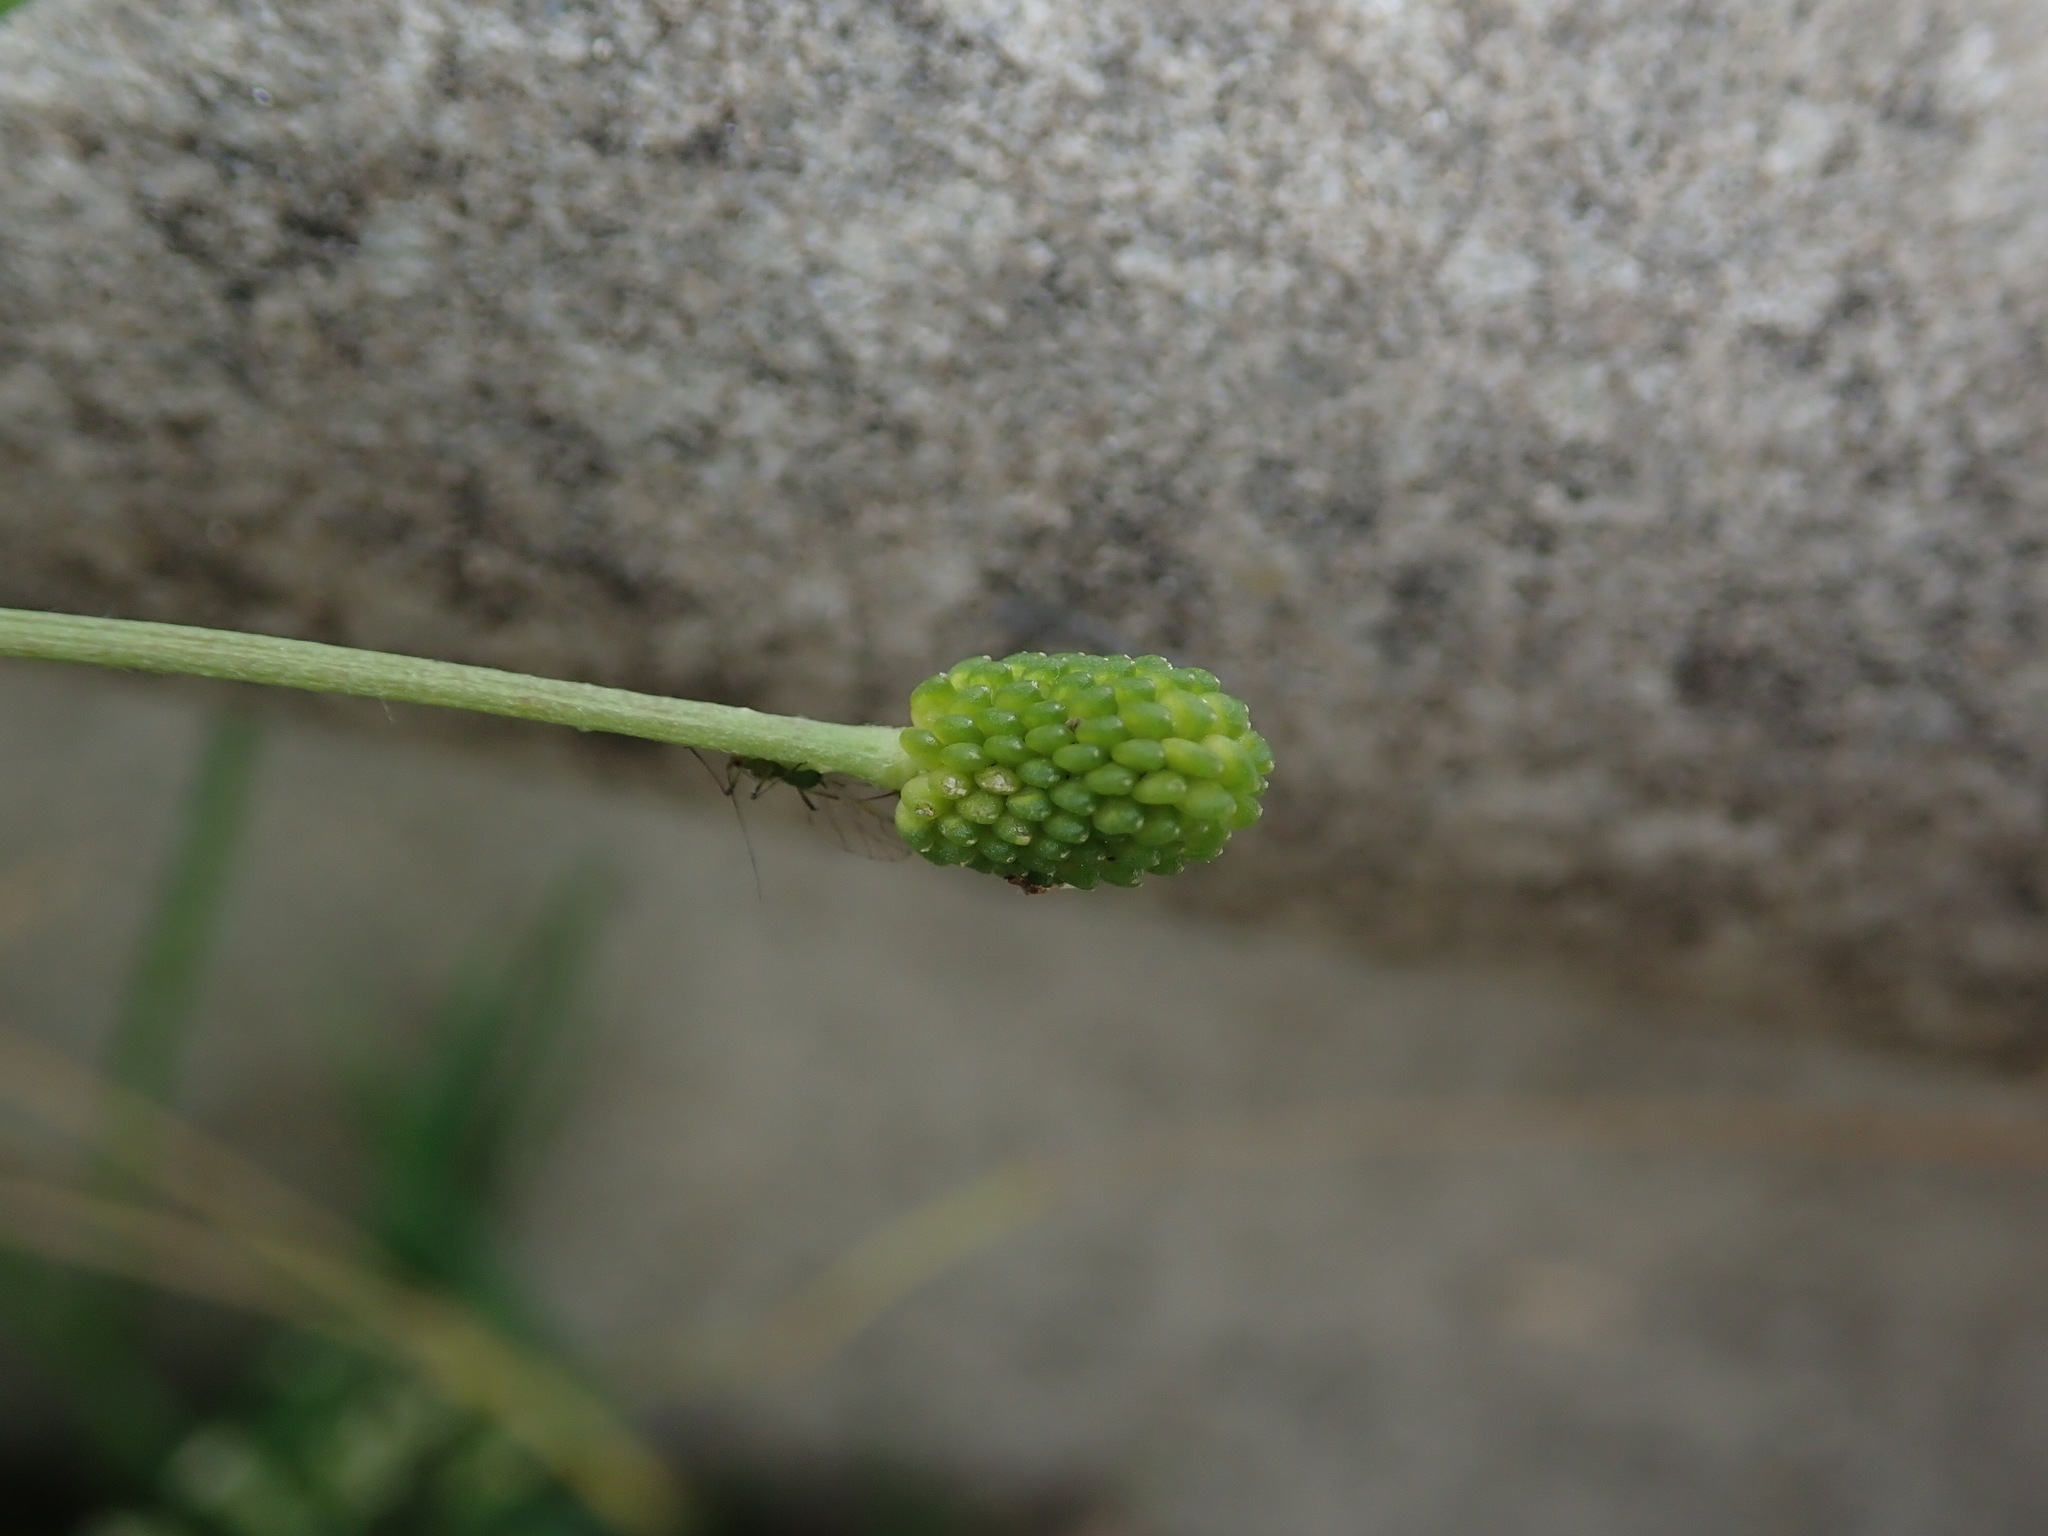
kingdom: Plantae
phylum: Tracheophyta
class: Magnoliopsida
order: Ranunculales
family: Ranunculaceae
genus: Ranunculus
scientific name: Ranunculus sceleratus
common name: Celery-leaved buttercup
